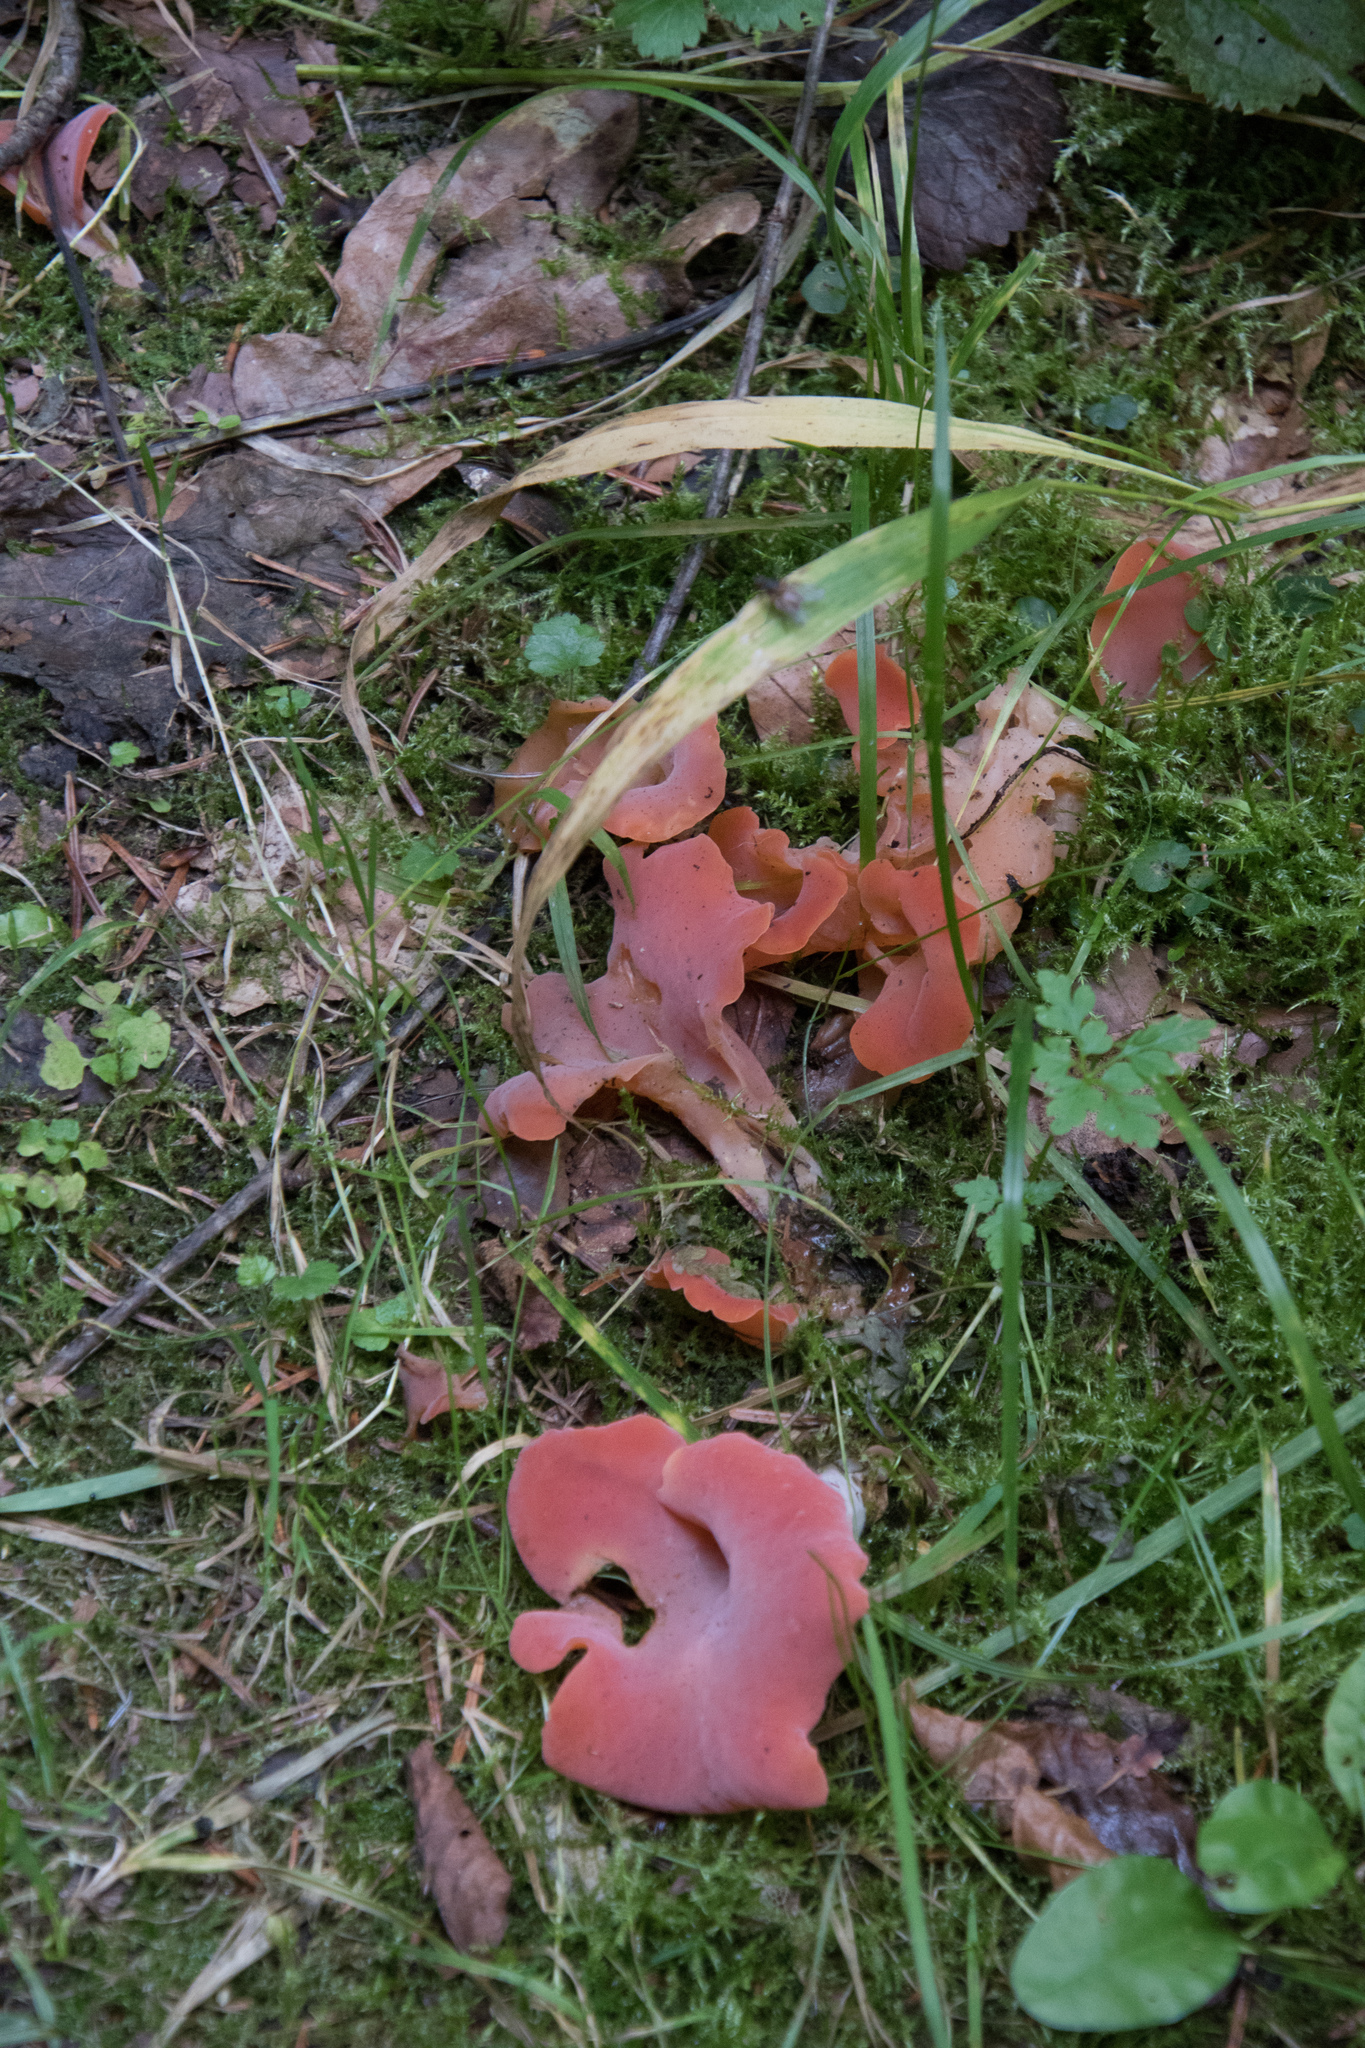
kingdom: Fungi
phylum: Basidiomycota
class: Agaricomycetes
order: Auriculariales
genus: Guepinia
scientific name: Guepinia helvelloides
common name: Salmon salad
